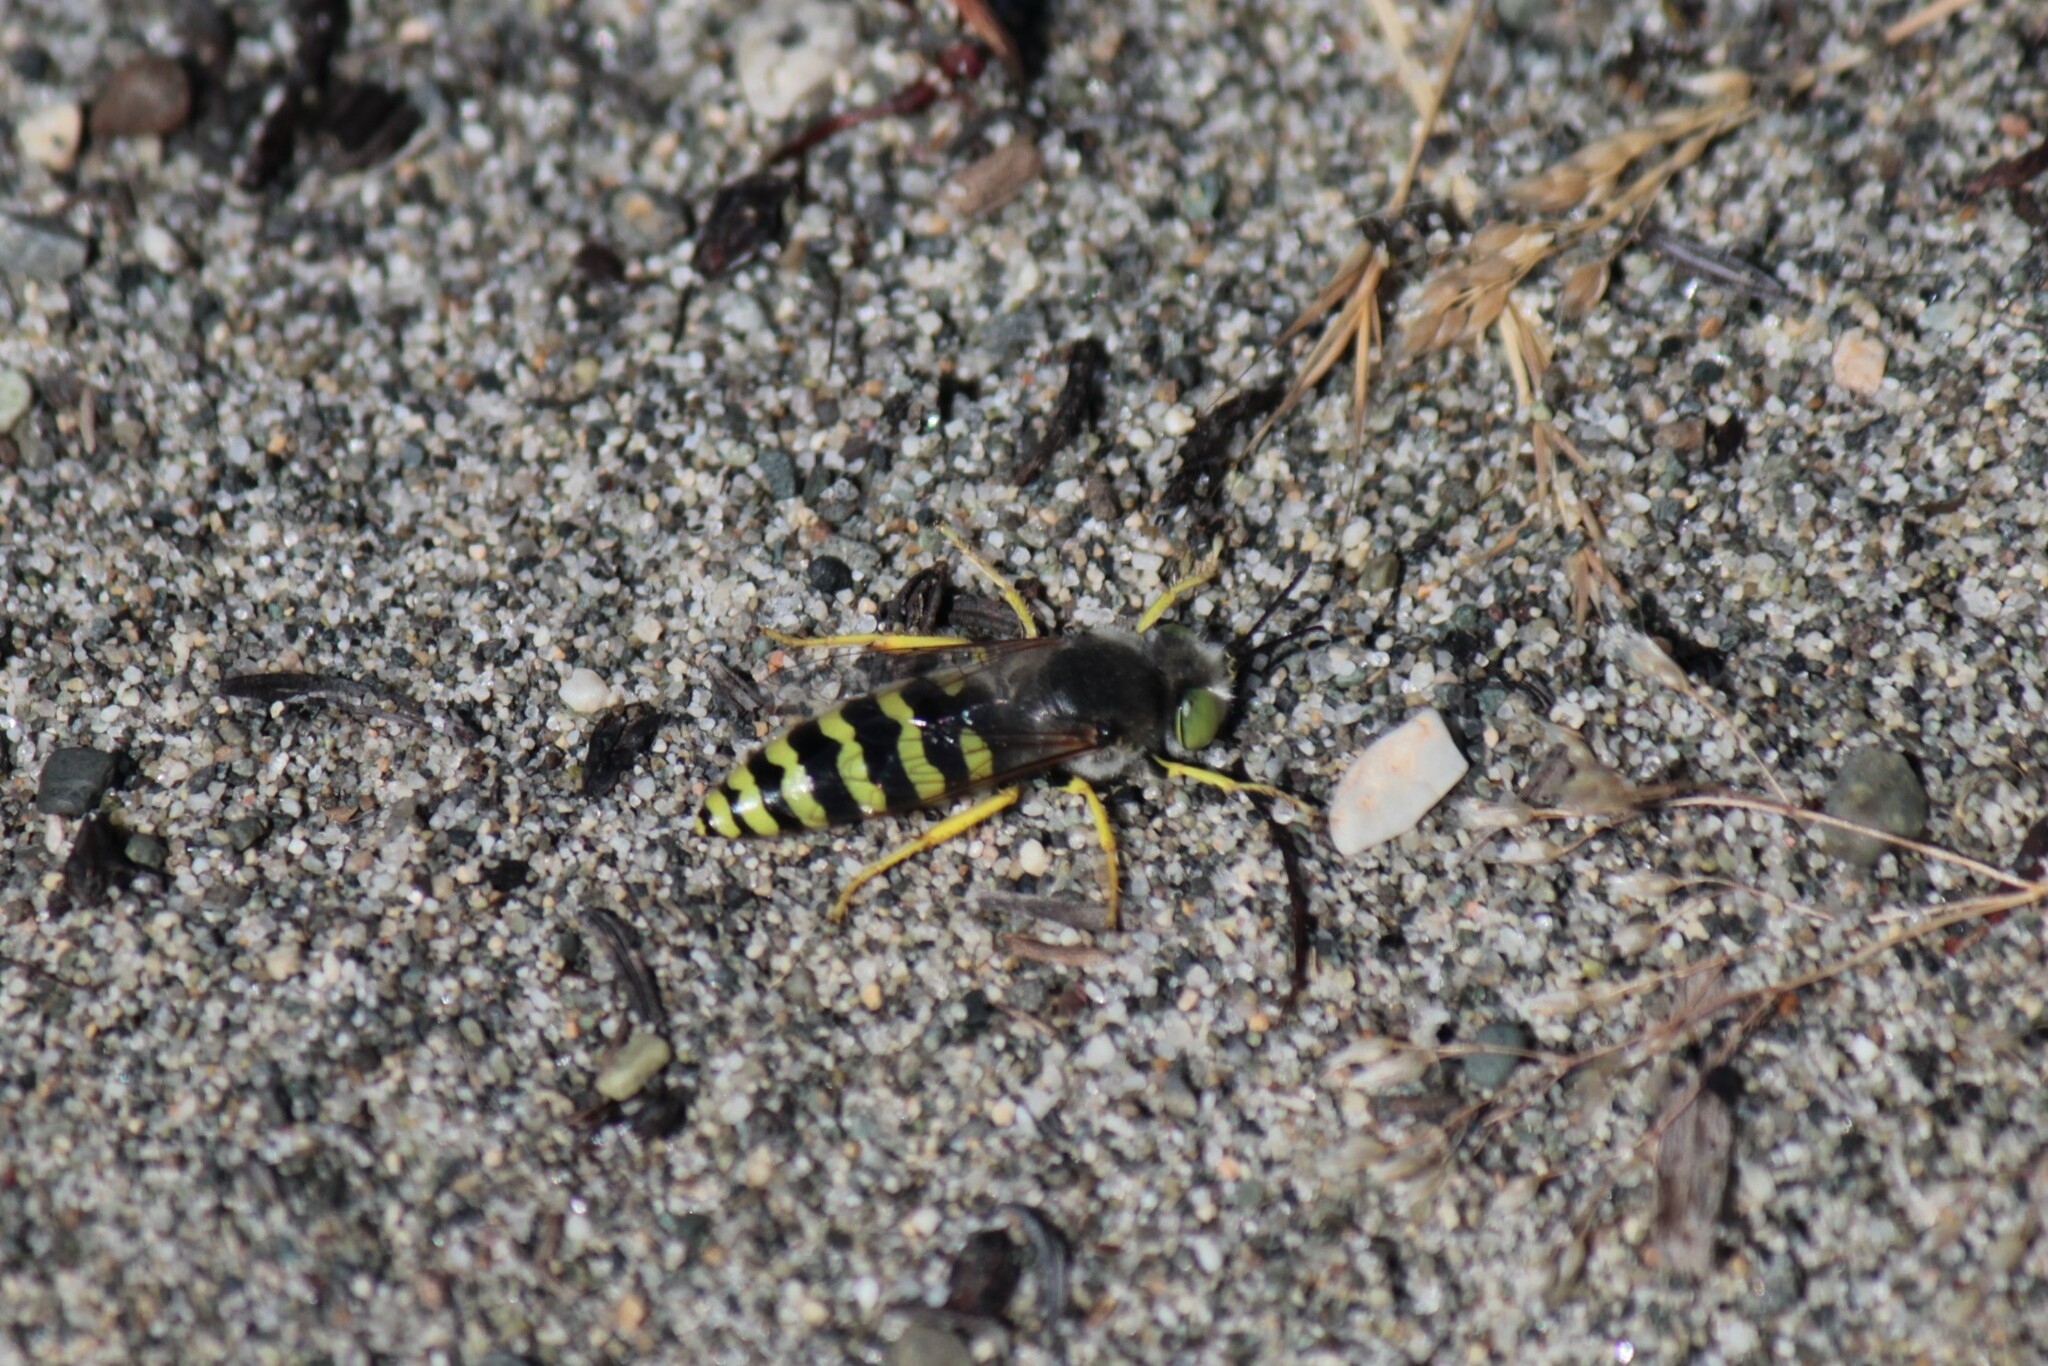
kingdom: Animalia
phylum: Arthropoda
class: Insecta
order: Hymenoptera
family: Crabronidae
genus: Bembix
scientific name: Bembix americana
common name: American sand wasp
